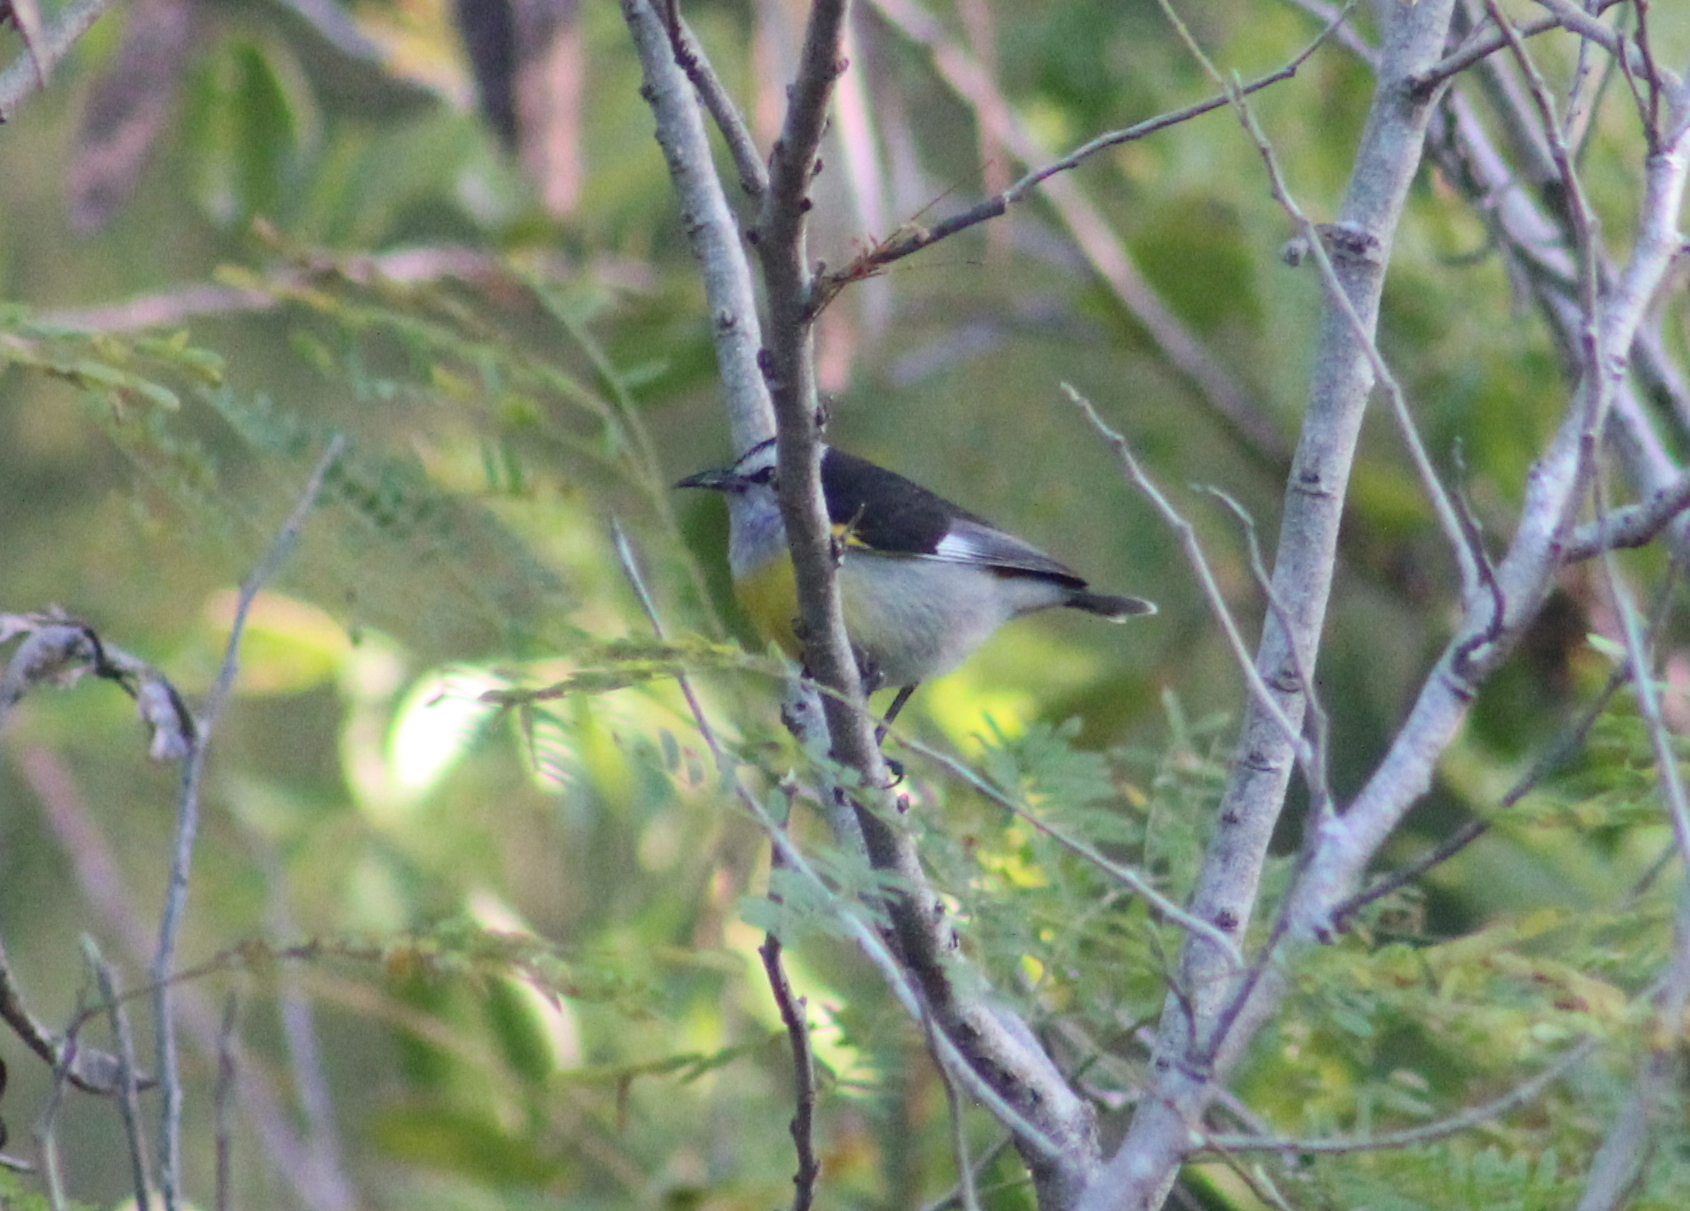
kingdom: Animalia
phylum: Chordata
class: Aves
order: Passeriformes
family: Thraupidae
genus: Coereba
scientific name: Coereba flaveola
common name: Bananaquit
